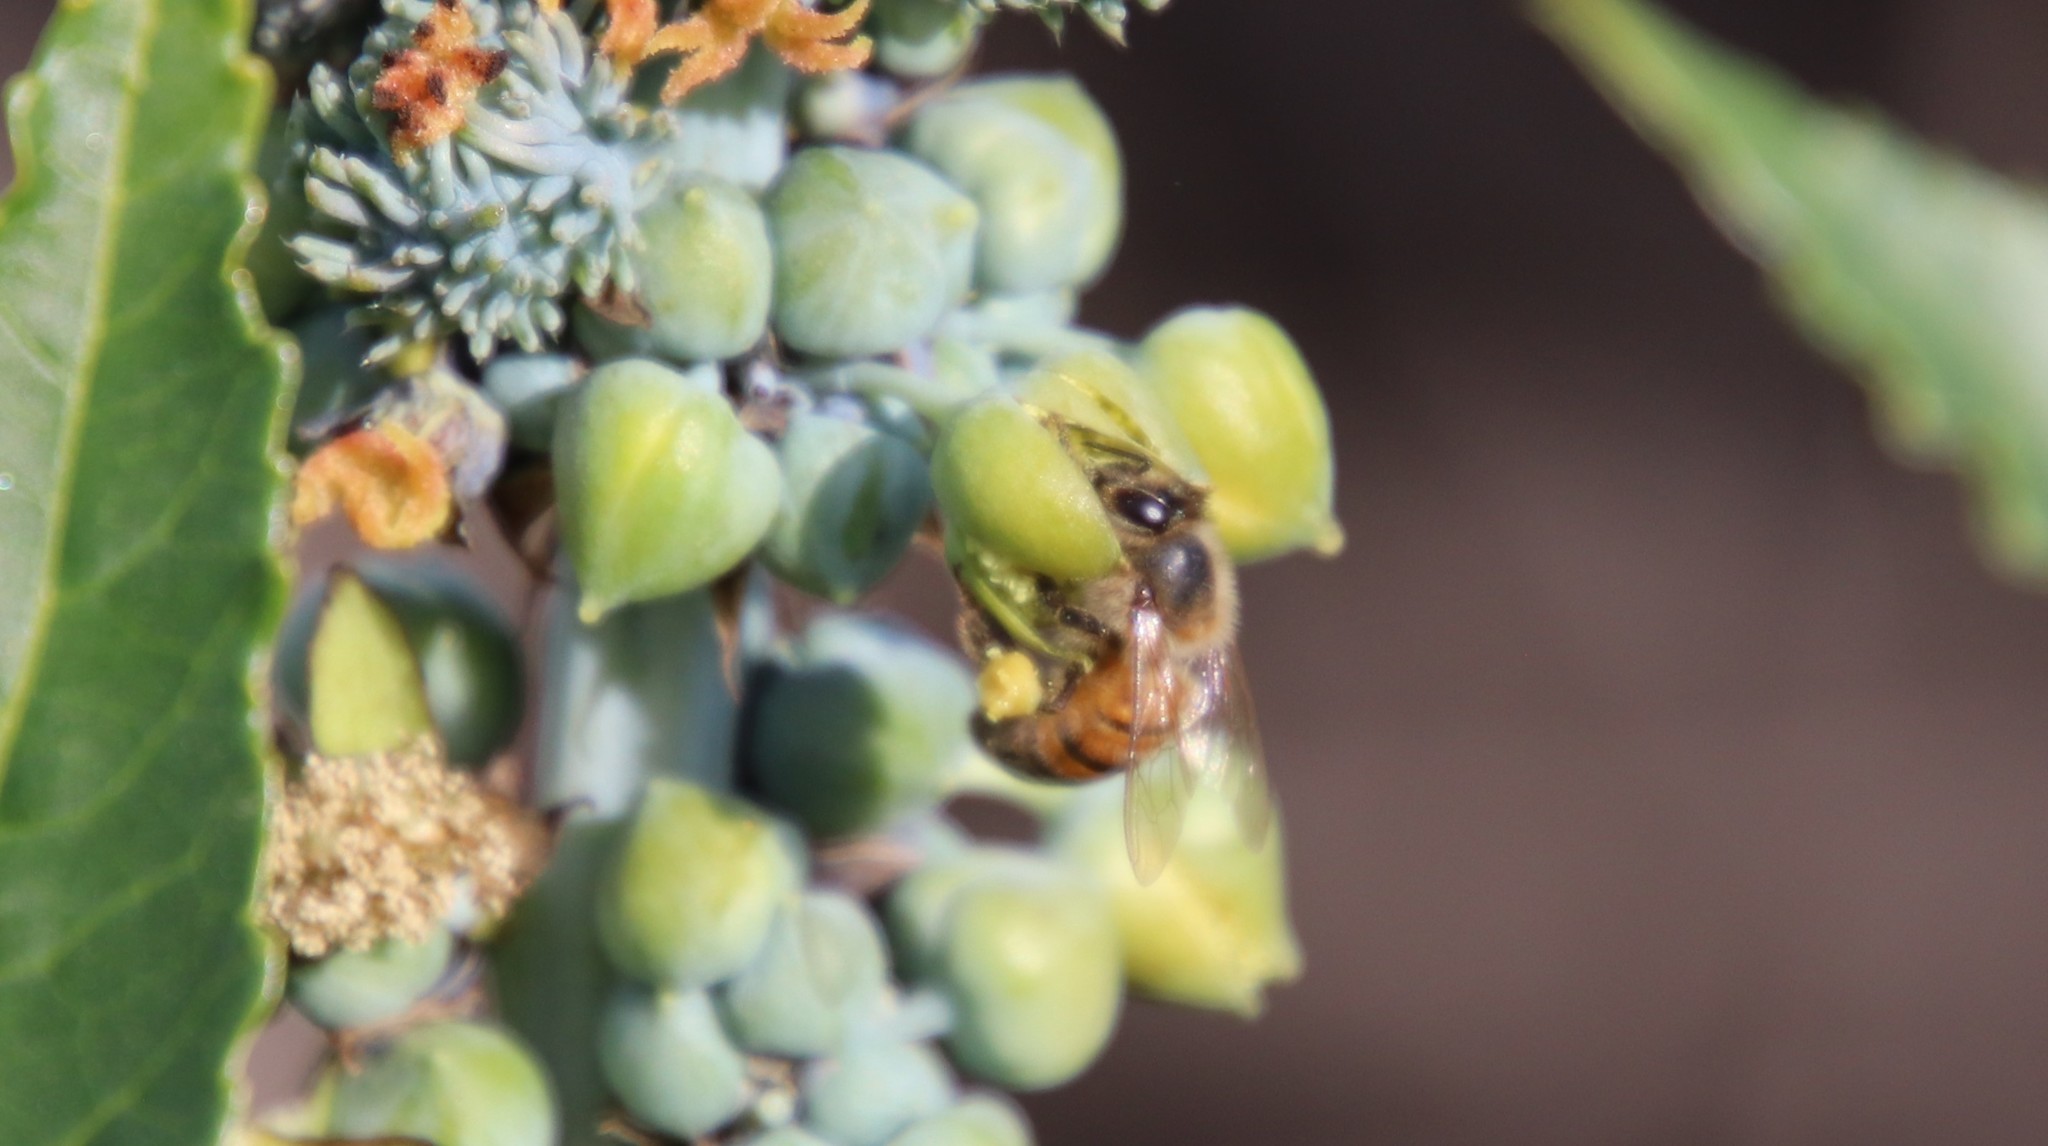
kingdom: Animalia
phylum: Arthropoda
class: Insecta
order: Hymenoptera
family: Apidae
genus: Apis
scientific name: Apis mellifera
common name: Honey bee
